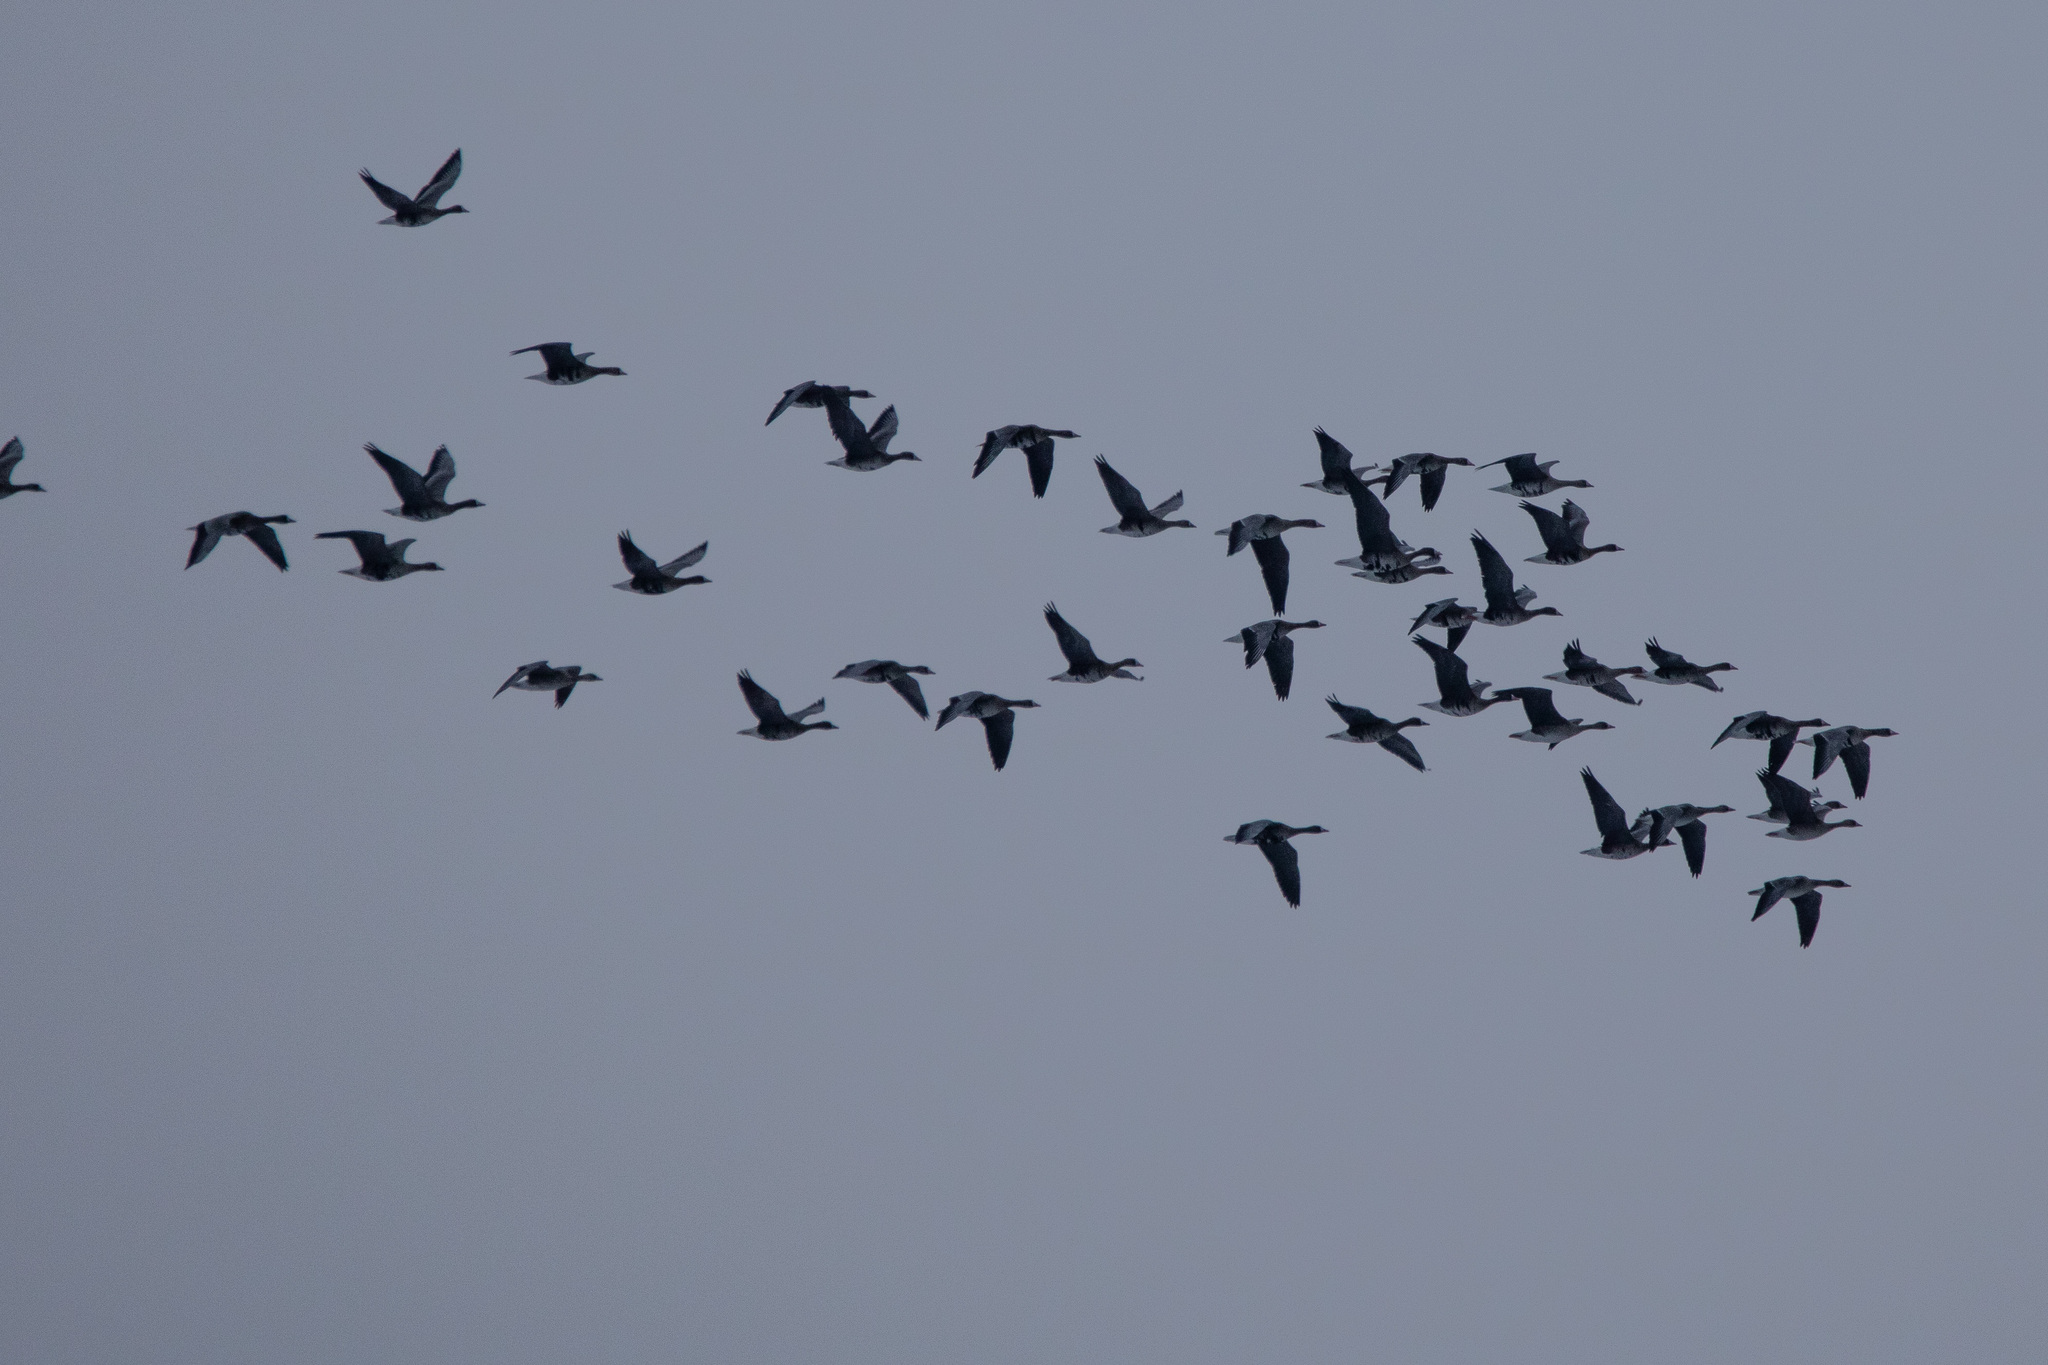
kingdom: Animalia
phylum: Chordata
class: Aves
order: Anseriformes
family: Anatidae
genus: Anser
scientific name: Anser albifrons
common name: Greater white-fronted goose
